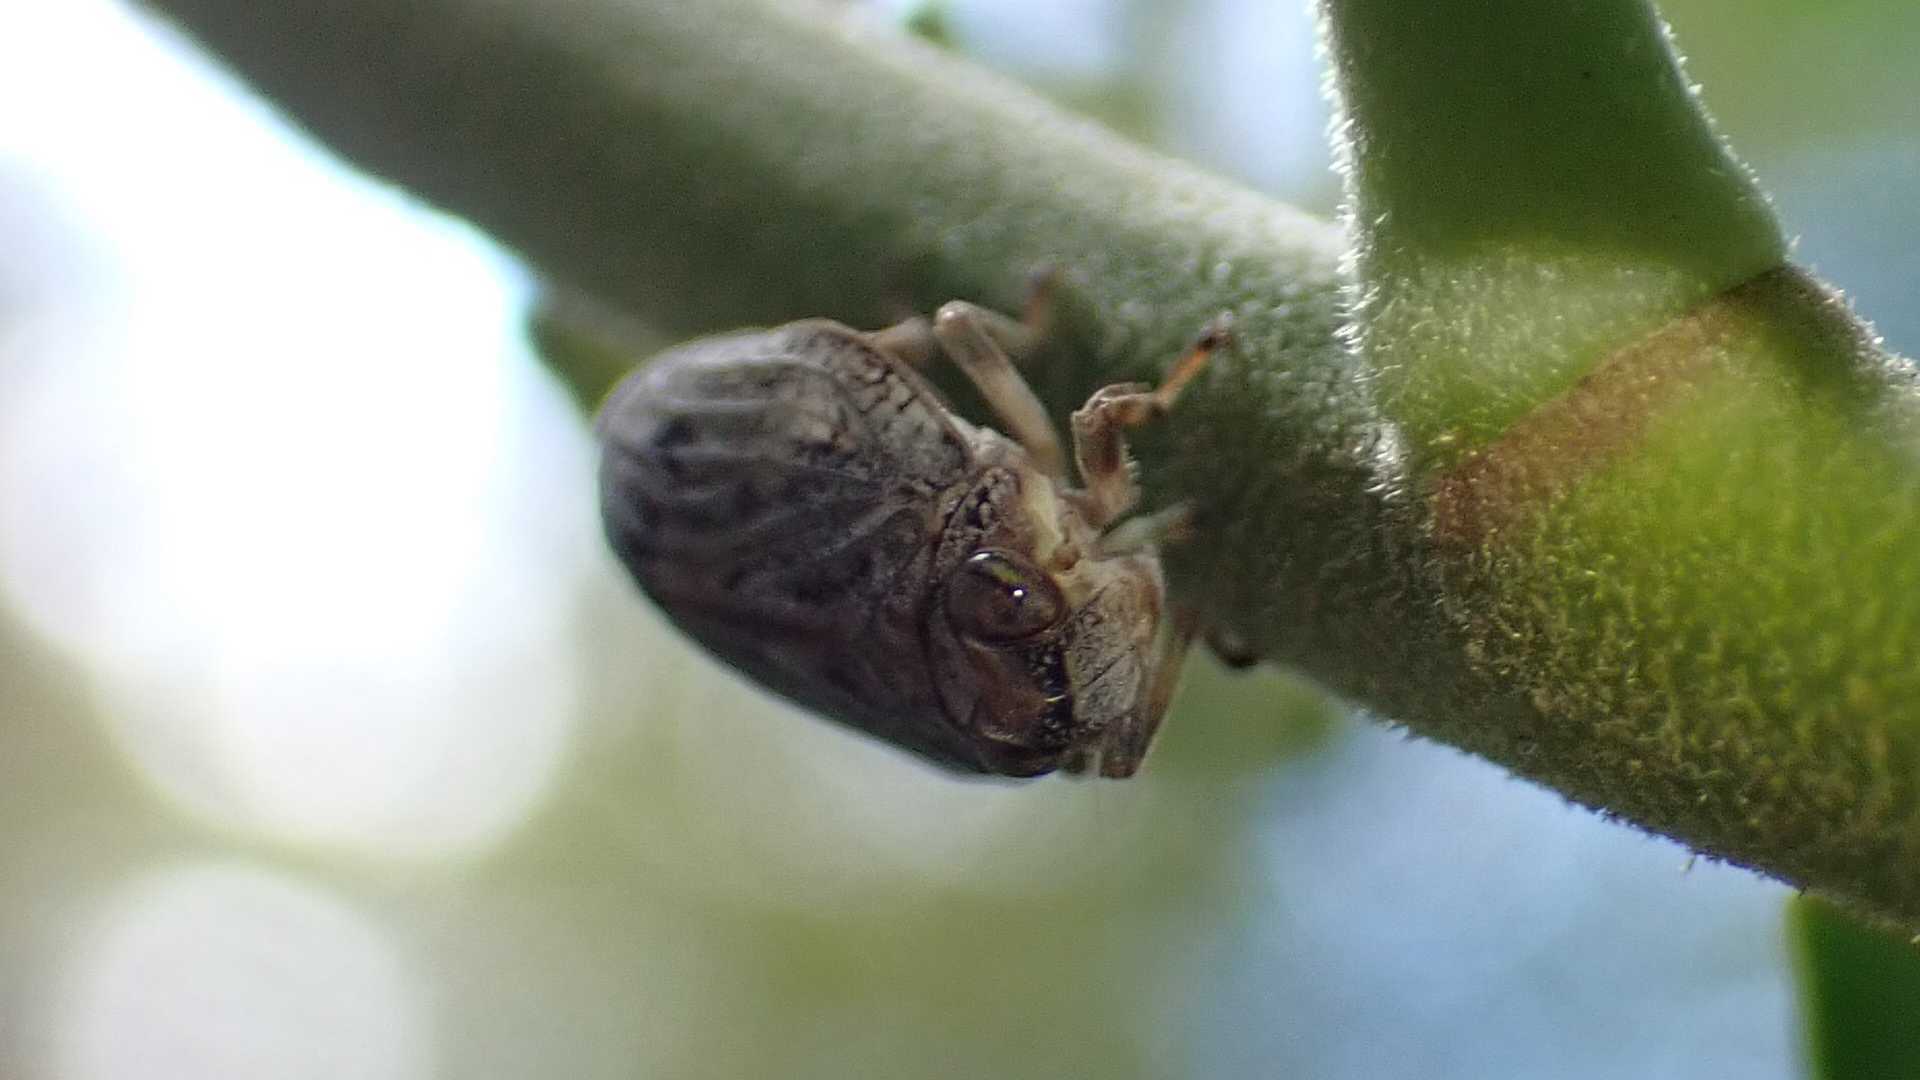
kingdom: Animalia
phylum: Arthropoda
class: Insecta
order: Hemiptera
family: Issidae
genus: Issus
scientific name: Issus coleoptratus
